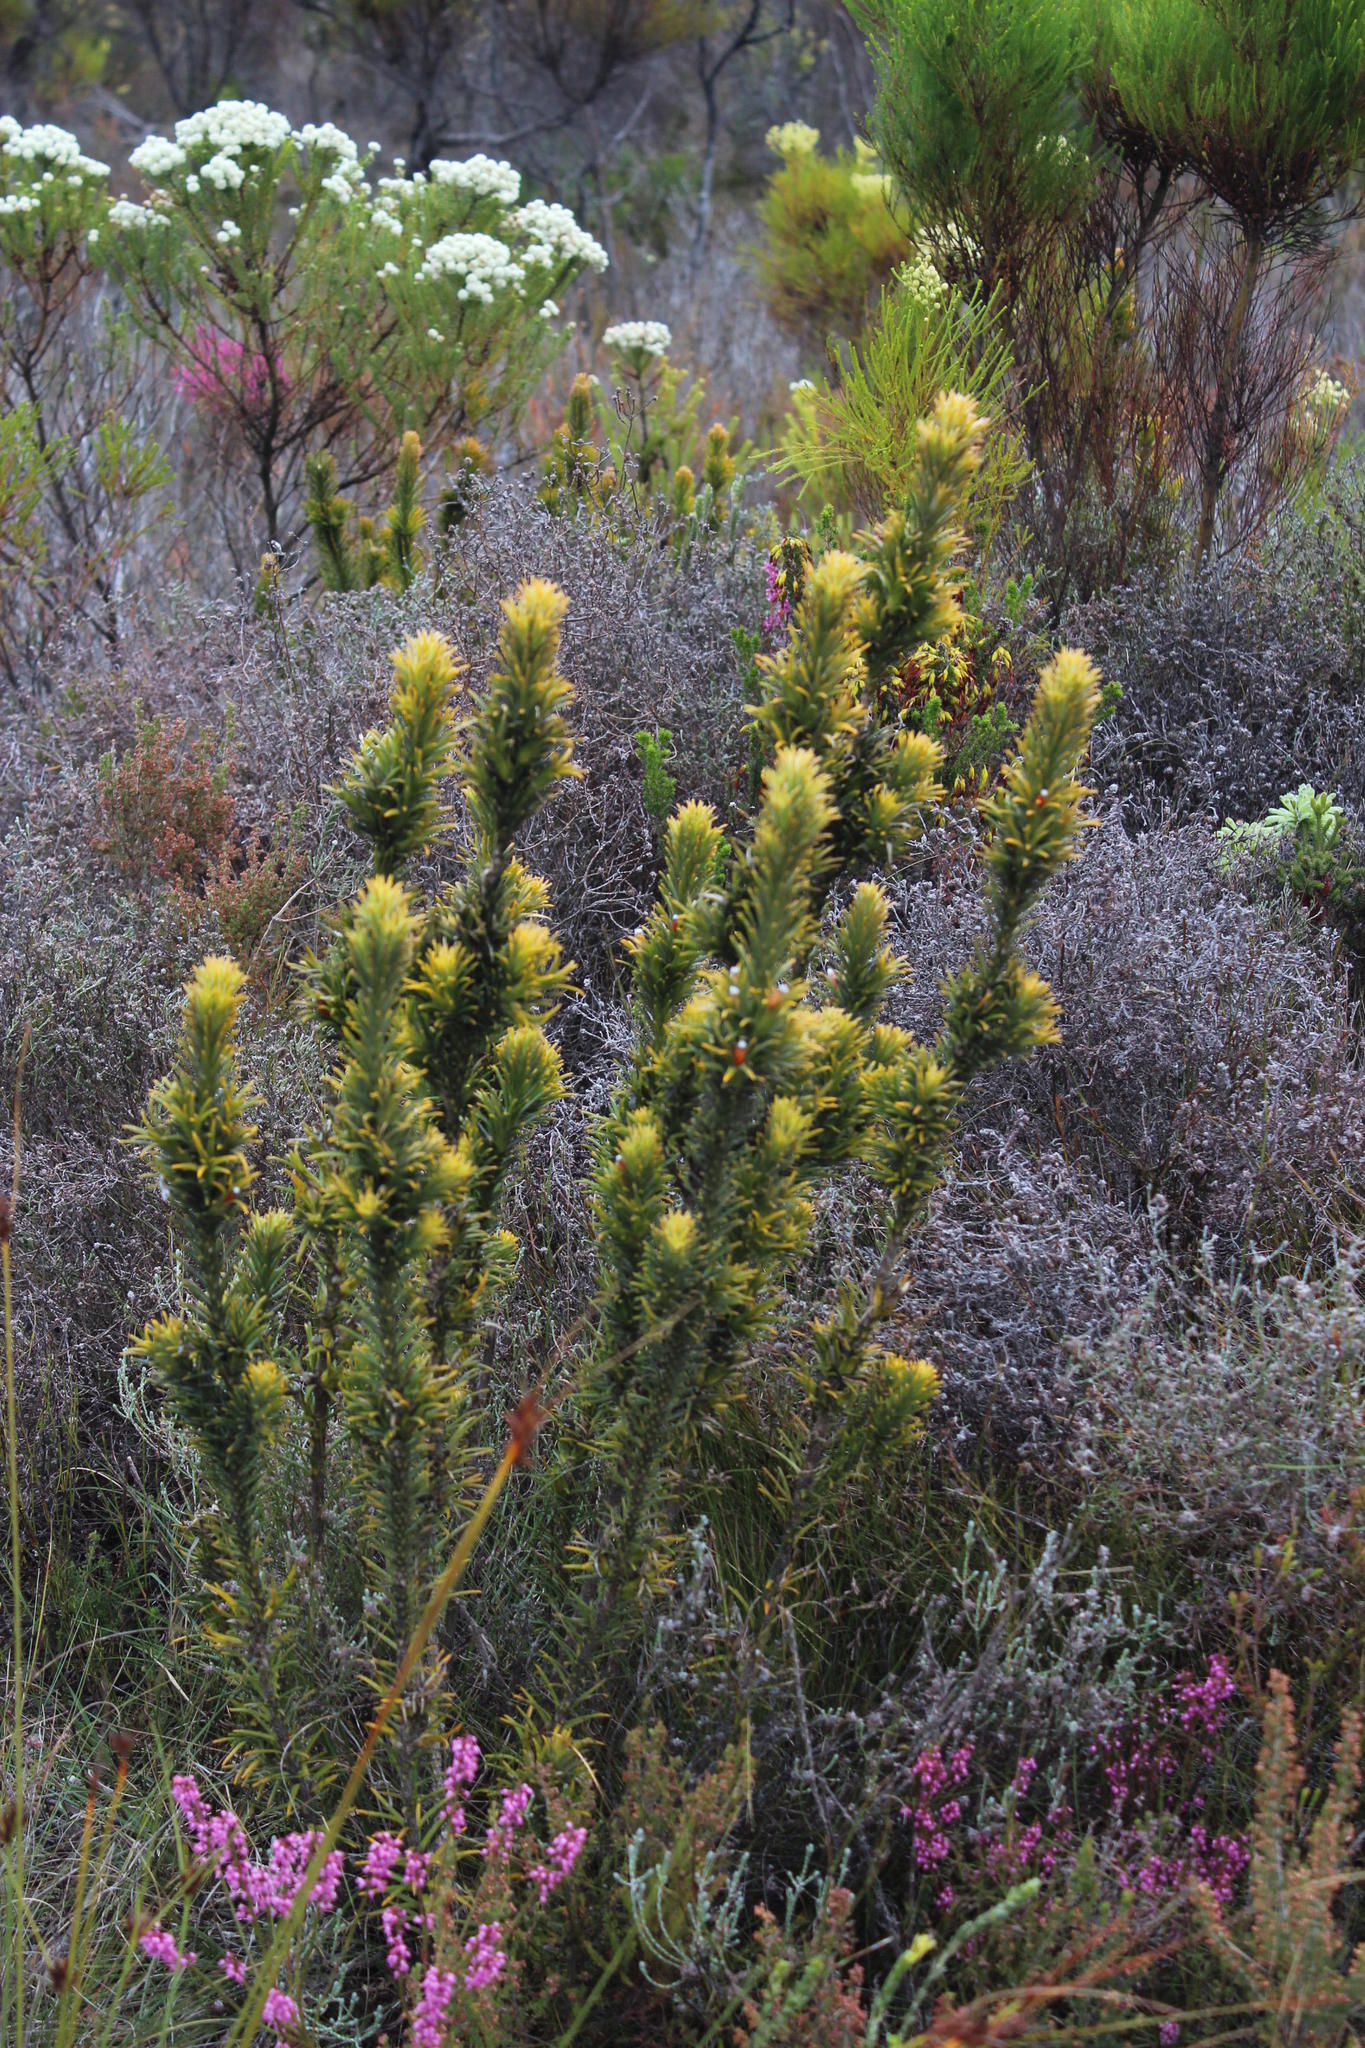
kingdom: Plantae
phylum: Tracheophyta
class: Magnoliopsida
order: Lamiales
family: Stilbaceae
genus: Retzia
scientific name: Retzia capensis
